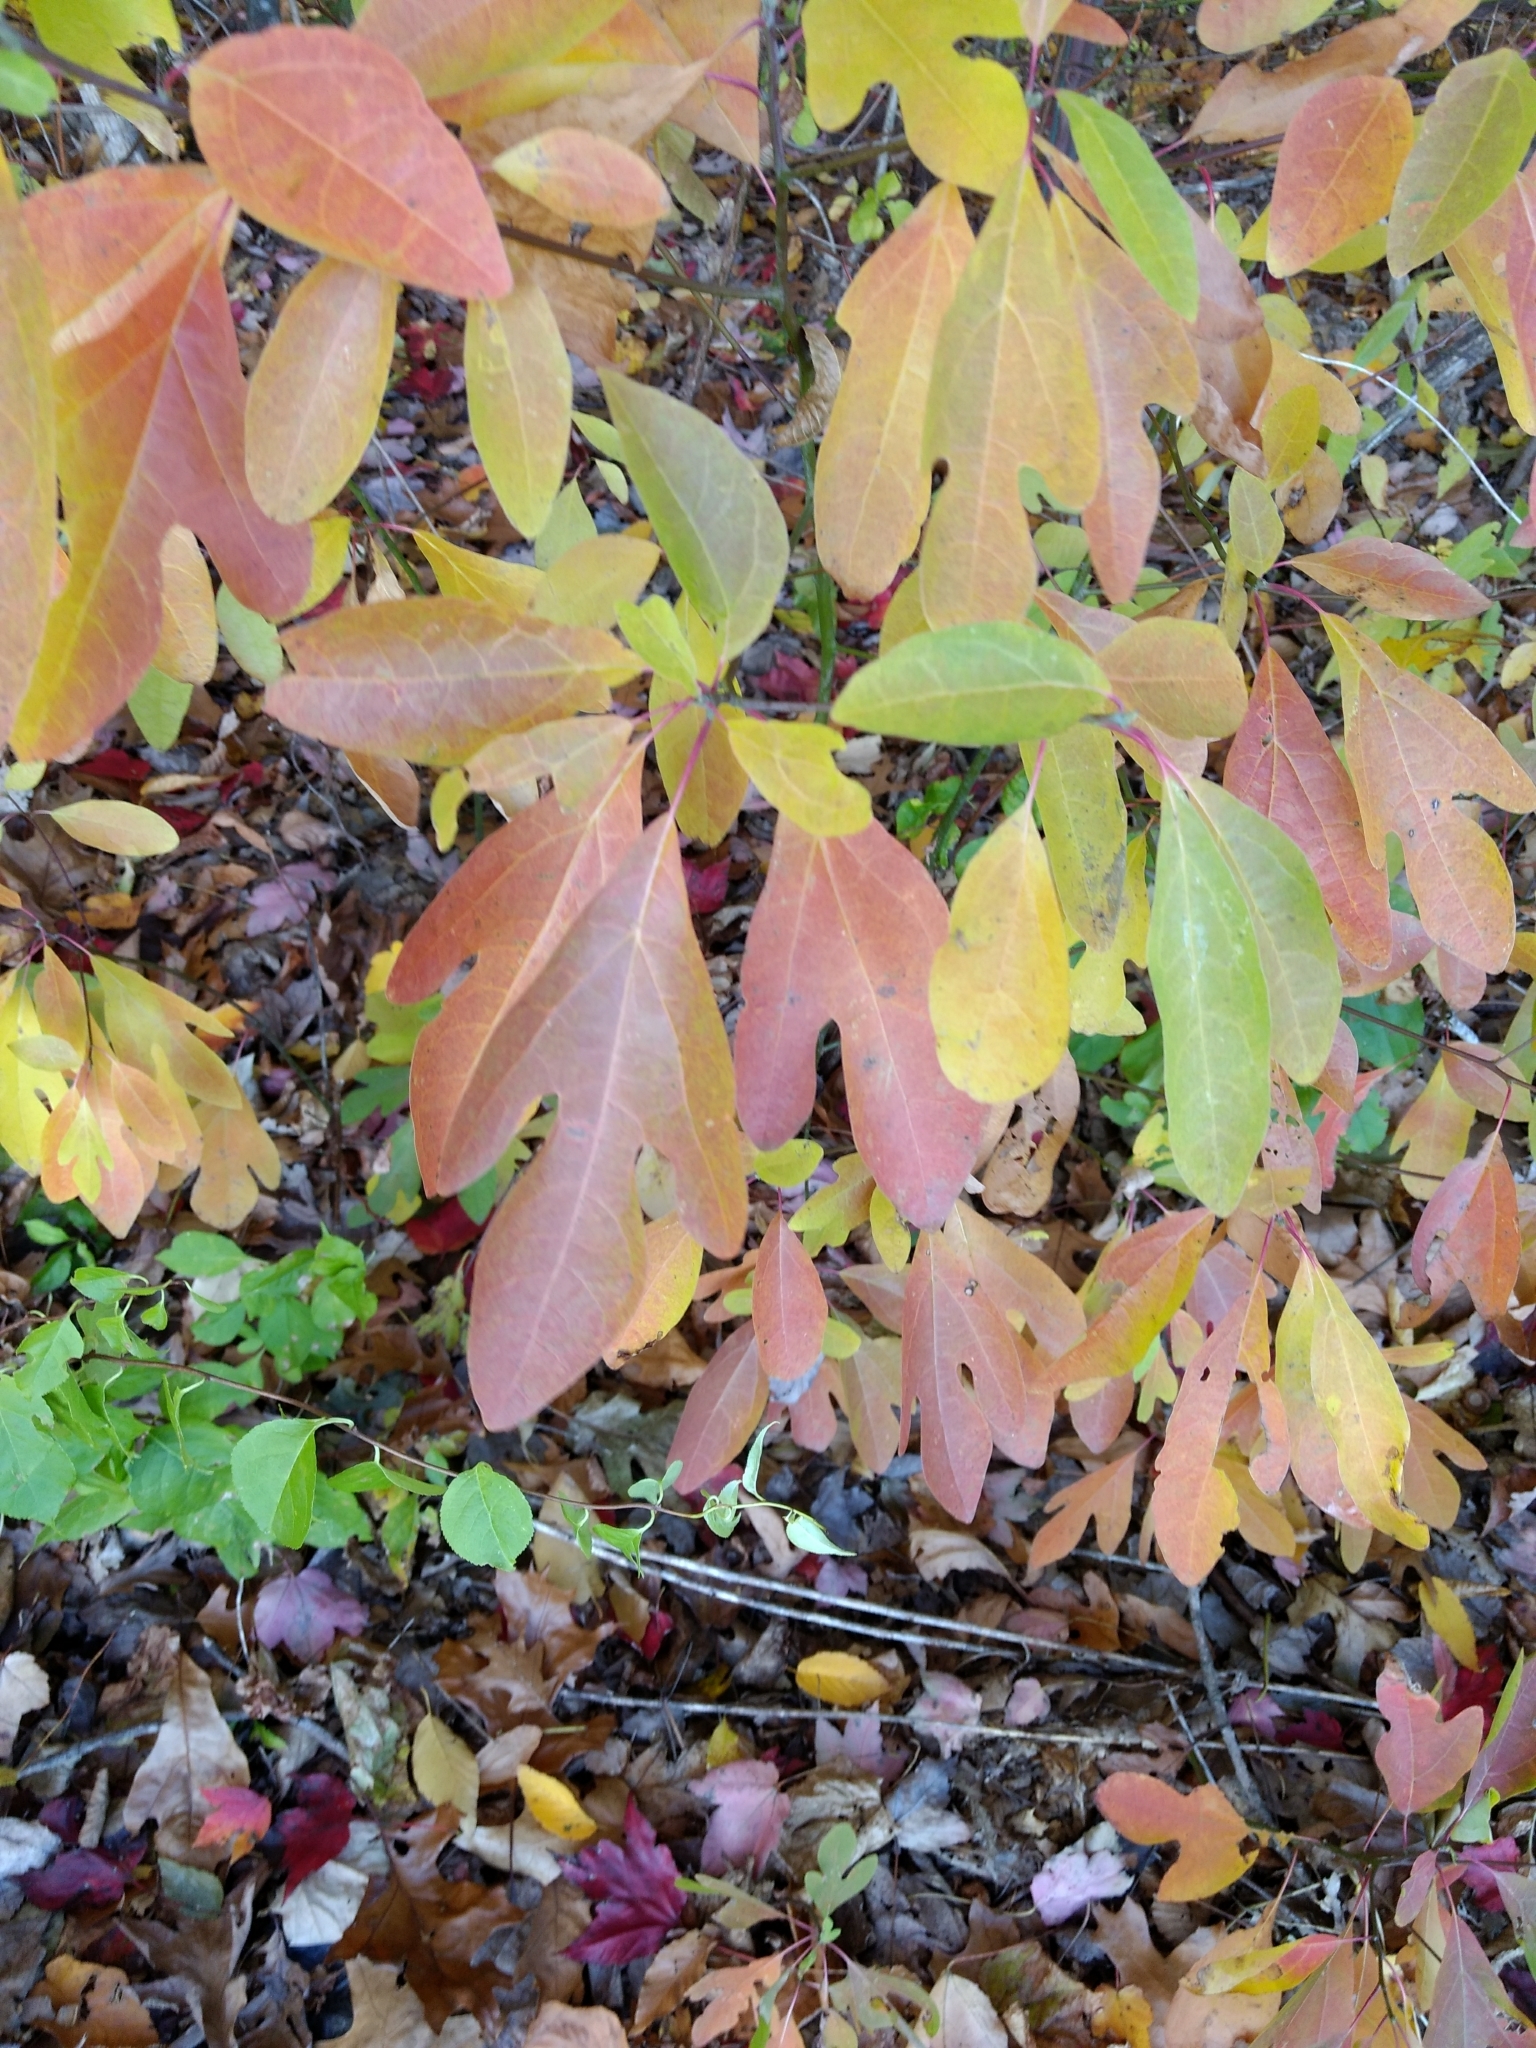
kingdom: Plantae
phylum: Tracheophyta
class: Magnoliopsida
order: Laurales
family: Lauraceae
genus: Sassafras
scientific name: Sassafras albidum
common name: Sassafras
